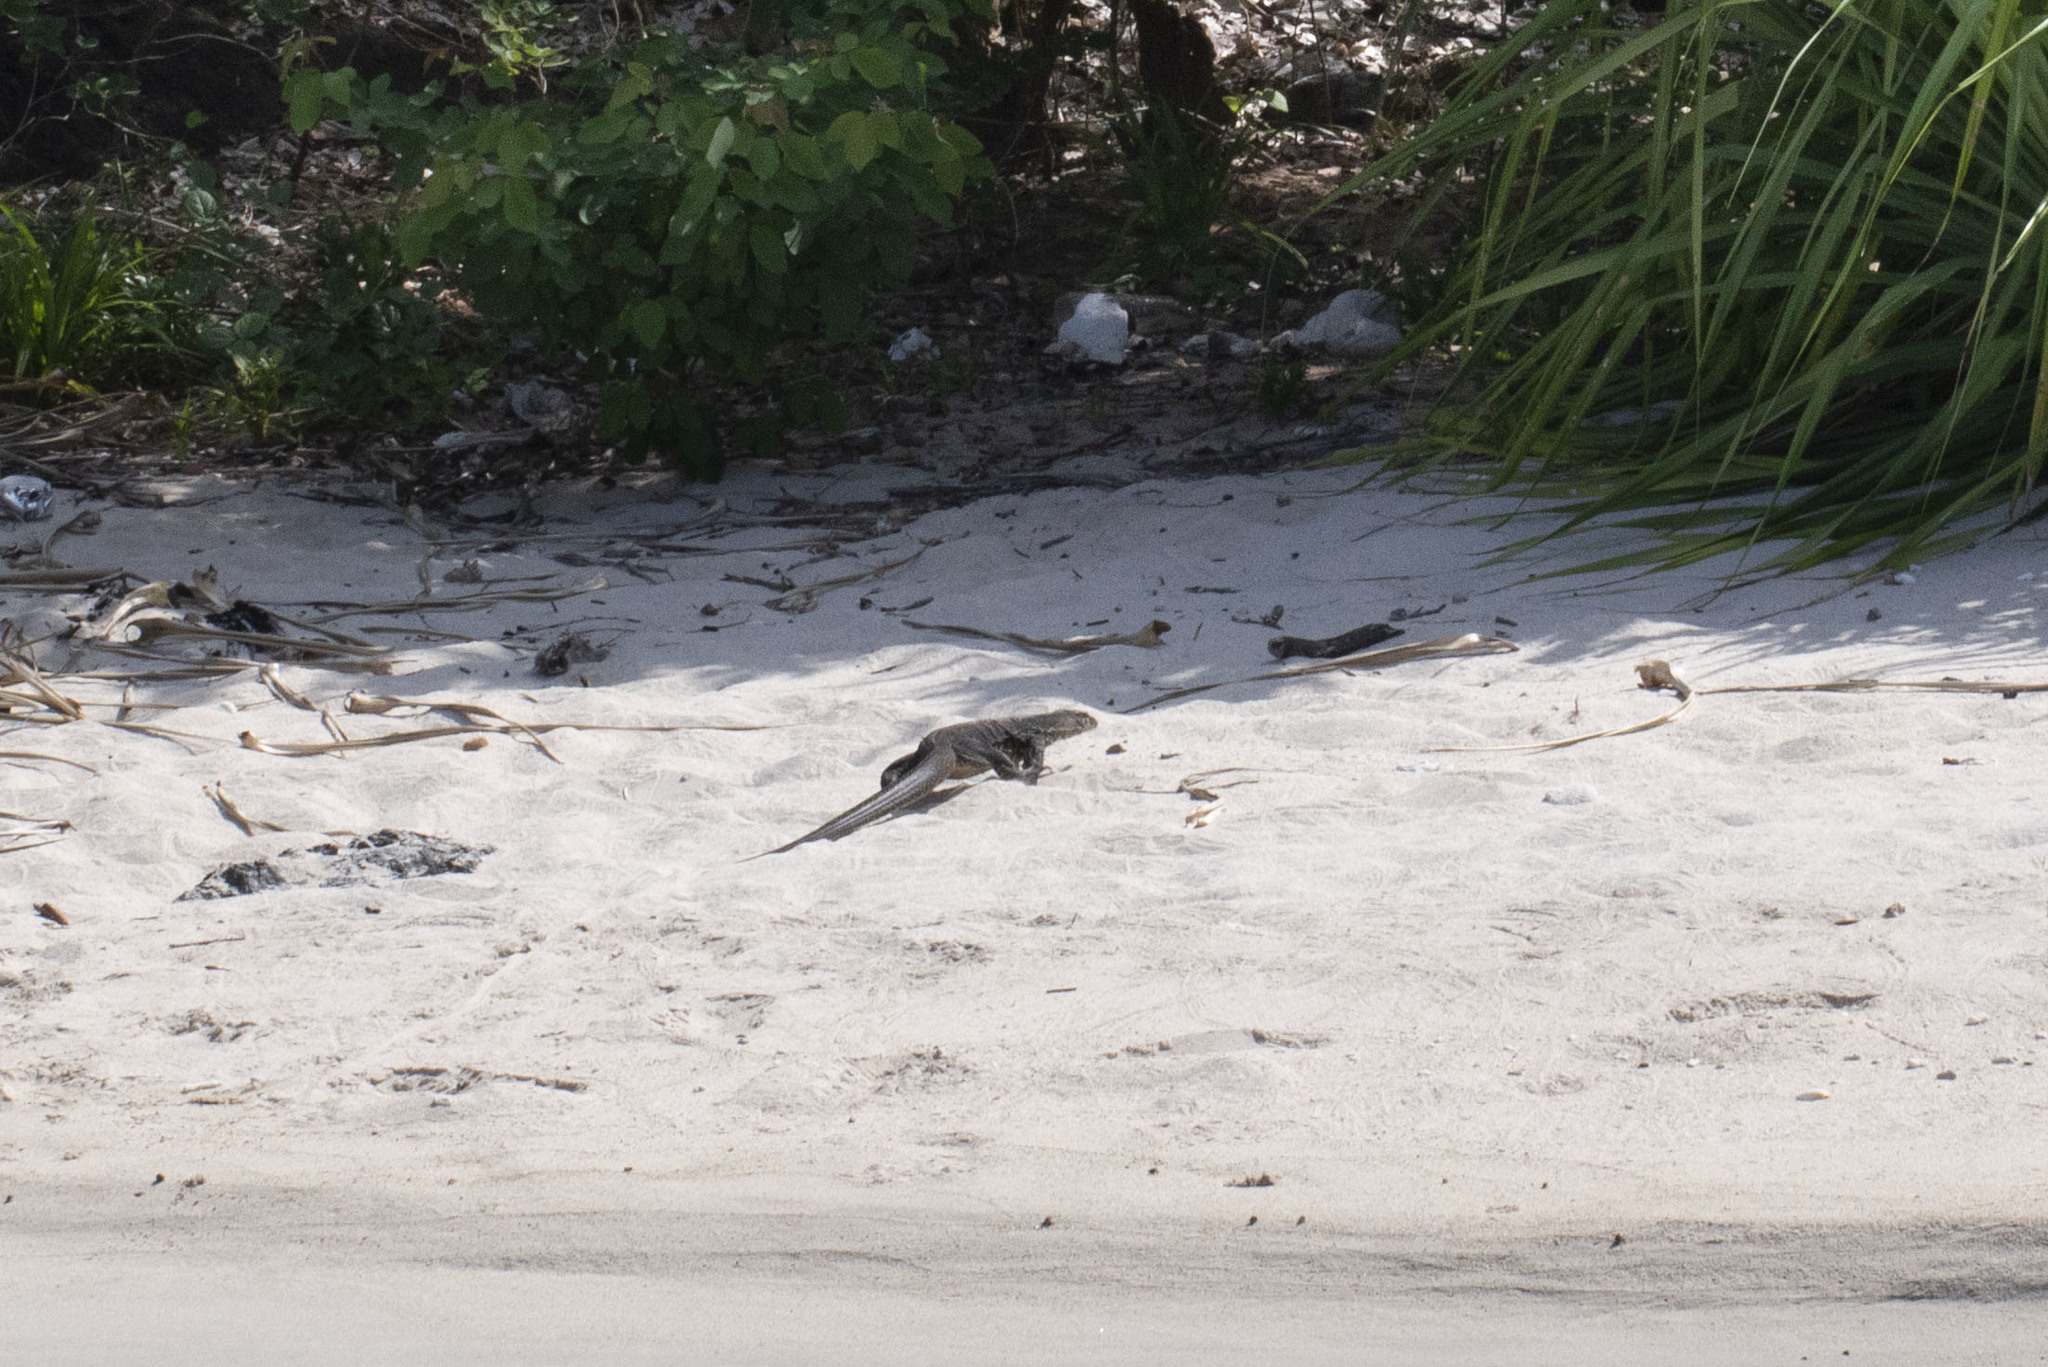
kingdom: Animalia
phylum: Chordata
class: Squamata
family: Varanidae
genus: Varanus
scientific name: Varanus salvator
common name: Common water monitor
